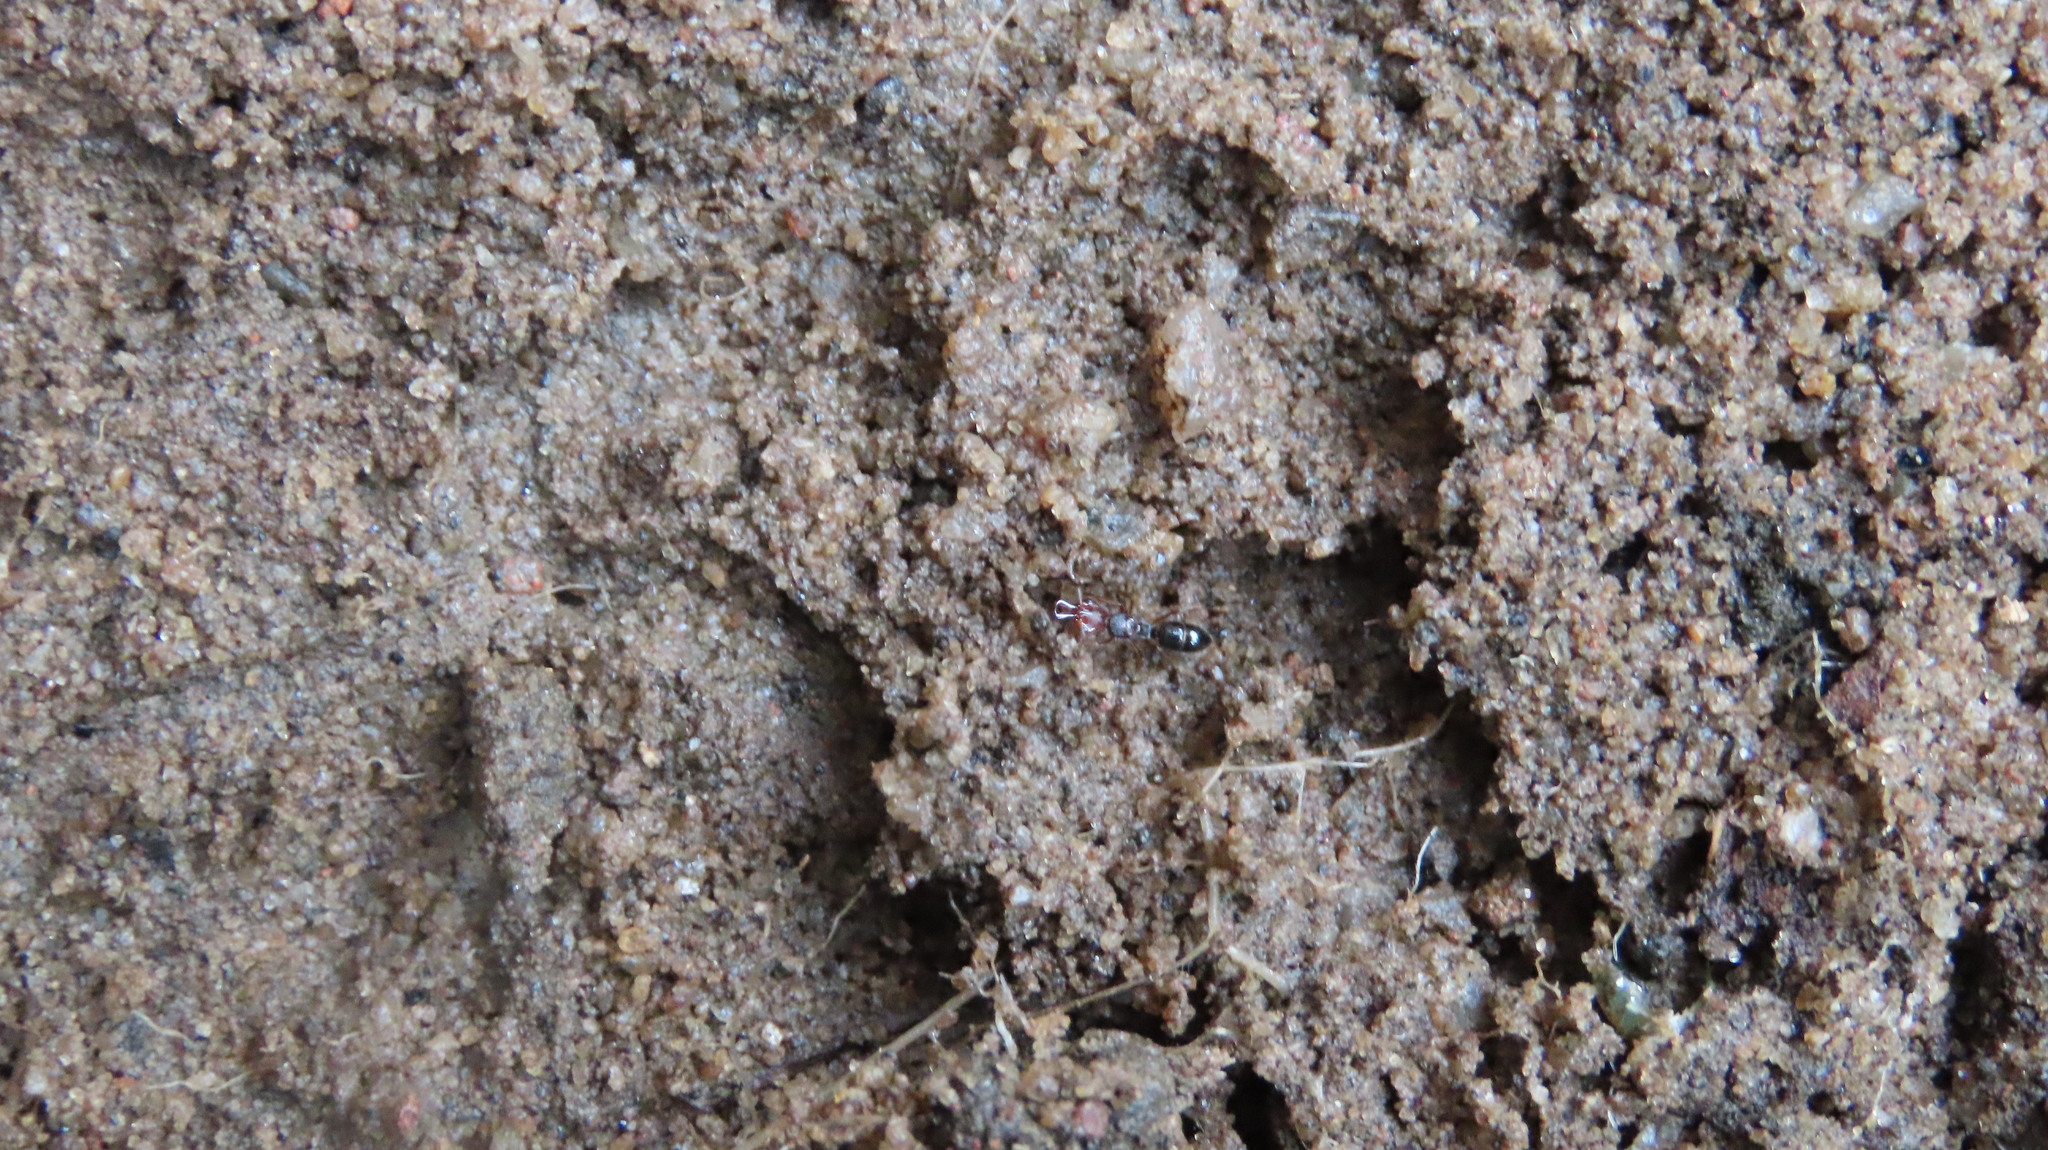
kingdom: Animalia
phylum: Arthropoda
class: Insecta
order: Hymenoptera
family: Formicidae
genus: Anochetus
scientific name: Anochetus graeffei
